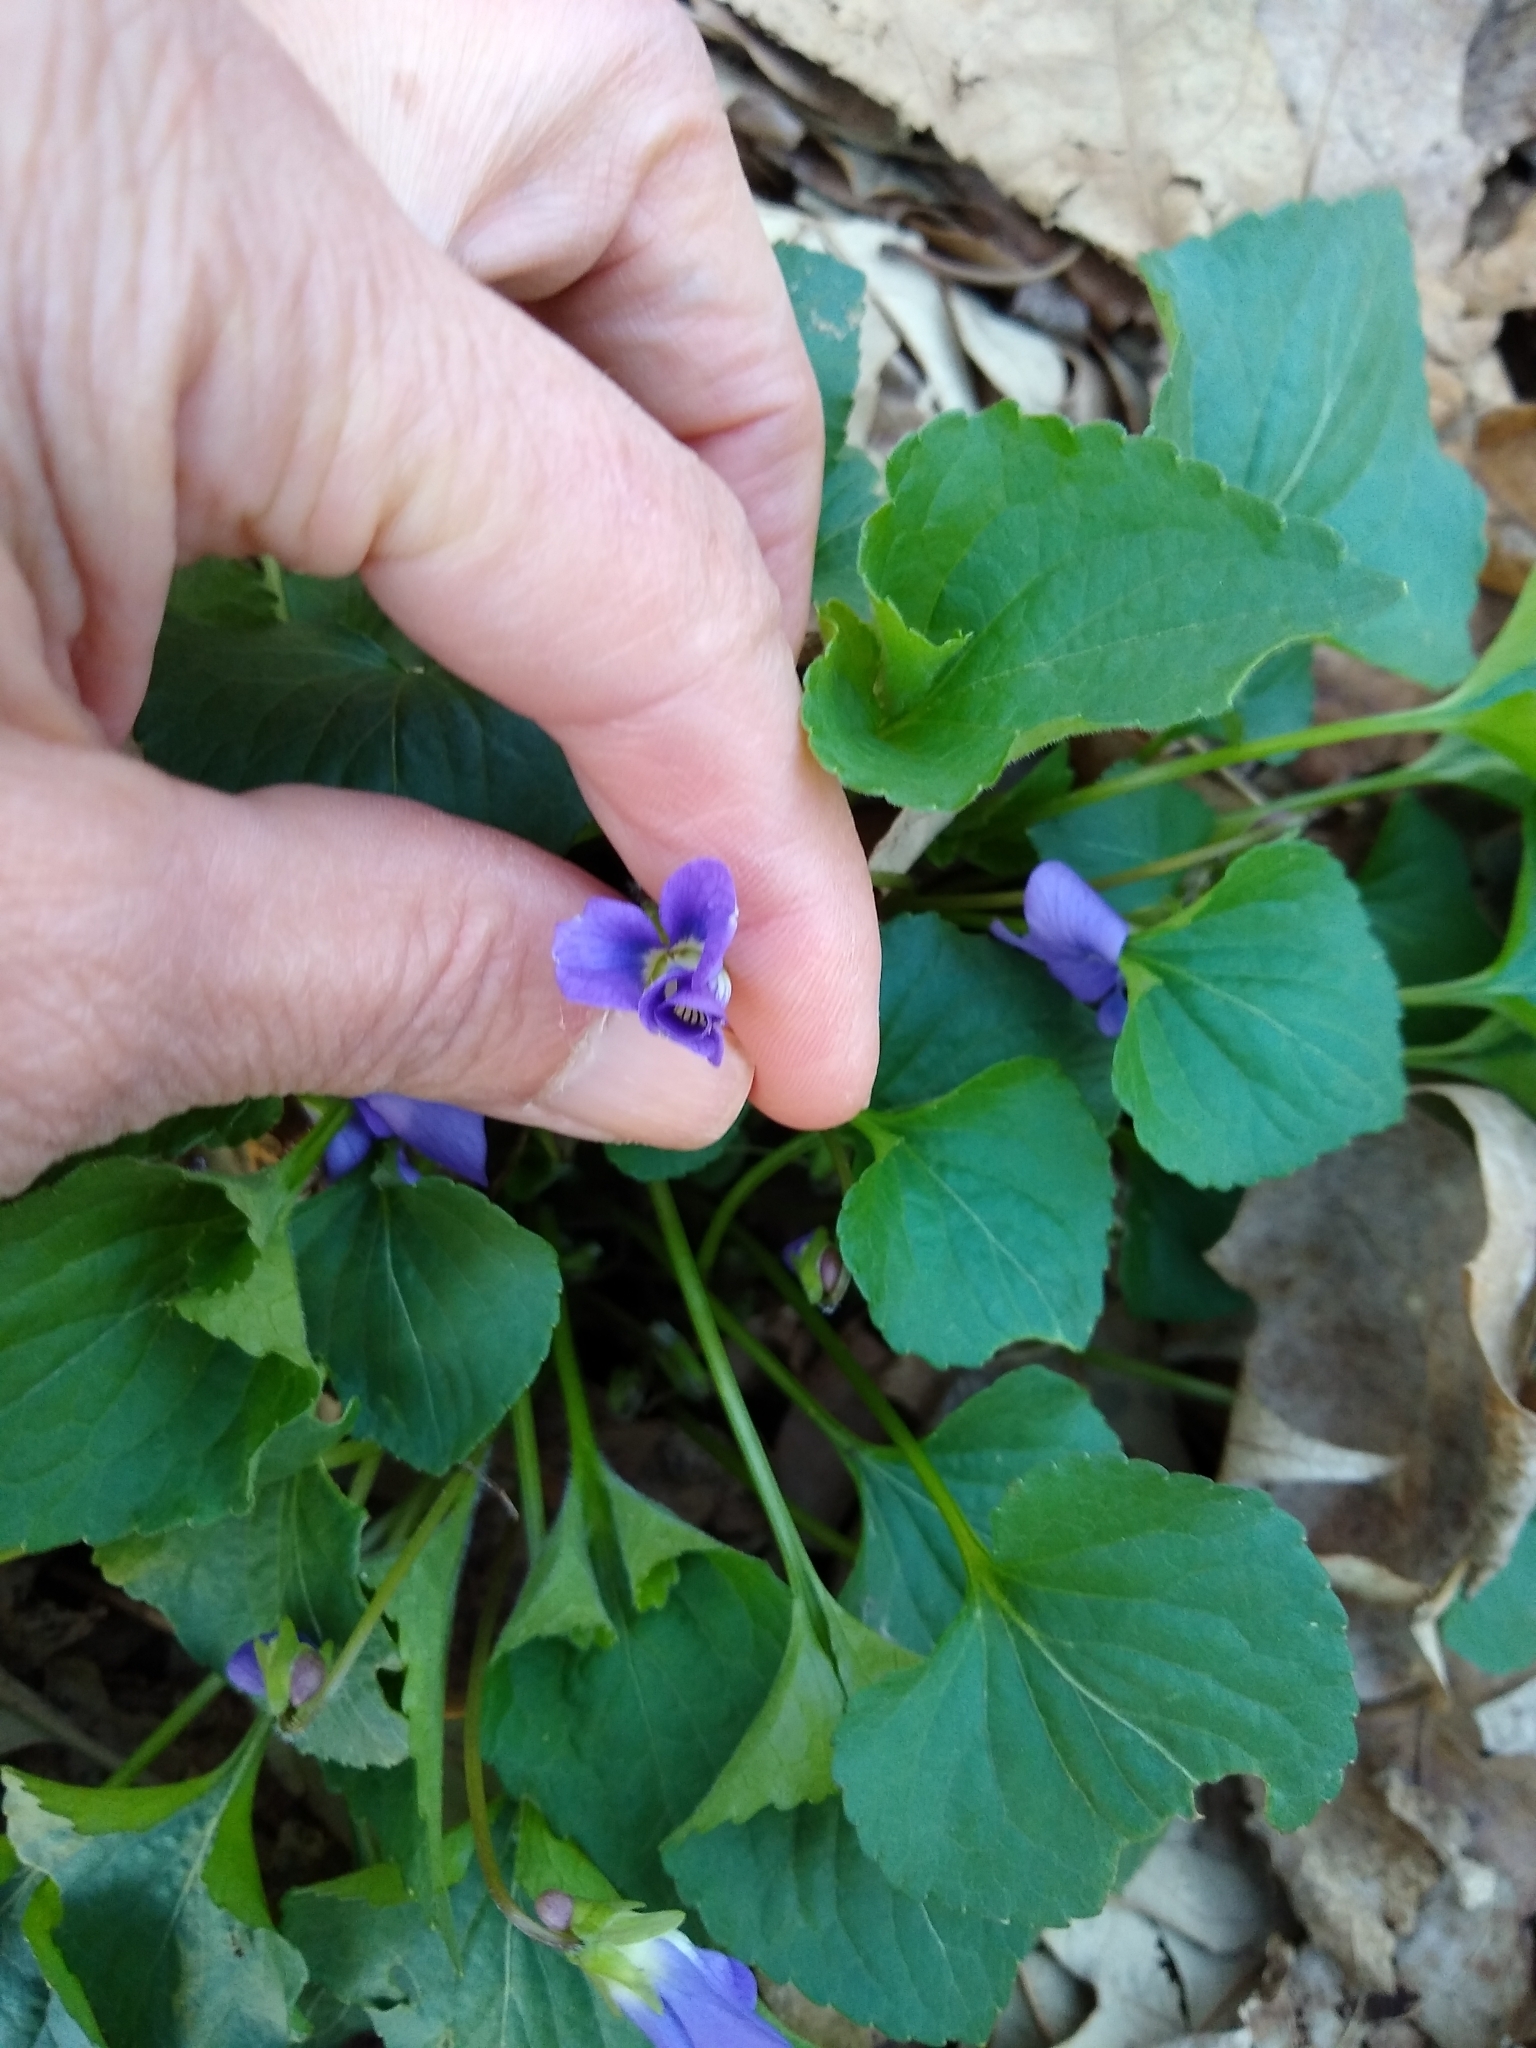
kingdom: Plantae
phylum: Tracheophyta
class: Magnoliopsida
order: Malpighiales
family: Violaceae
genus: Viola
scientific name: Viola sororia
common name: Dooryard violet
